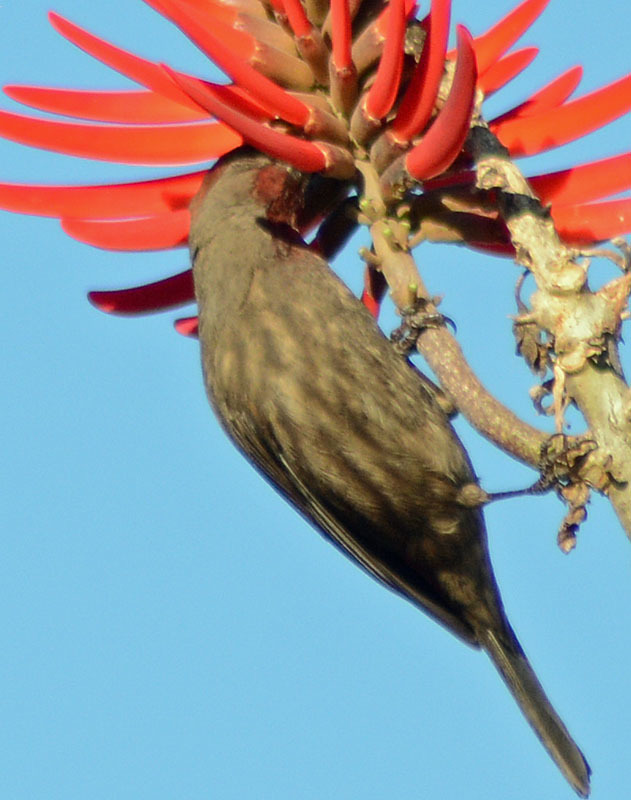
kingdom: Animalia
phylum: Chordata
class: Aves
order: Passeriformes
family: Fringillidae
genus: Haemorhous
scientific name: Haemorhous mexicanus
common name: House finch
